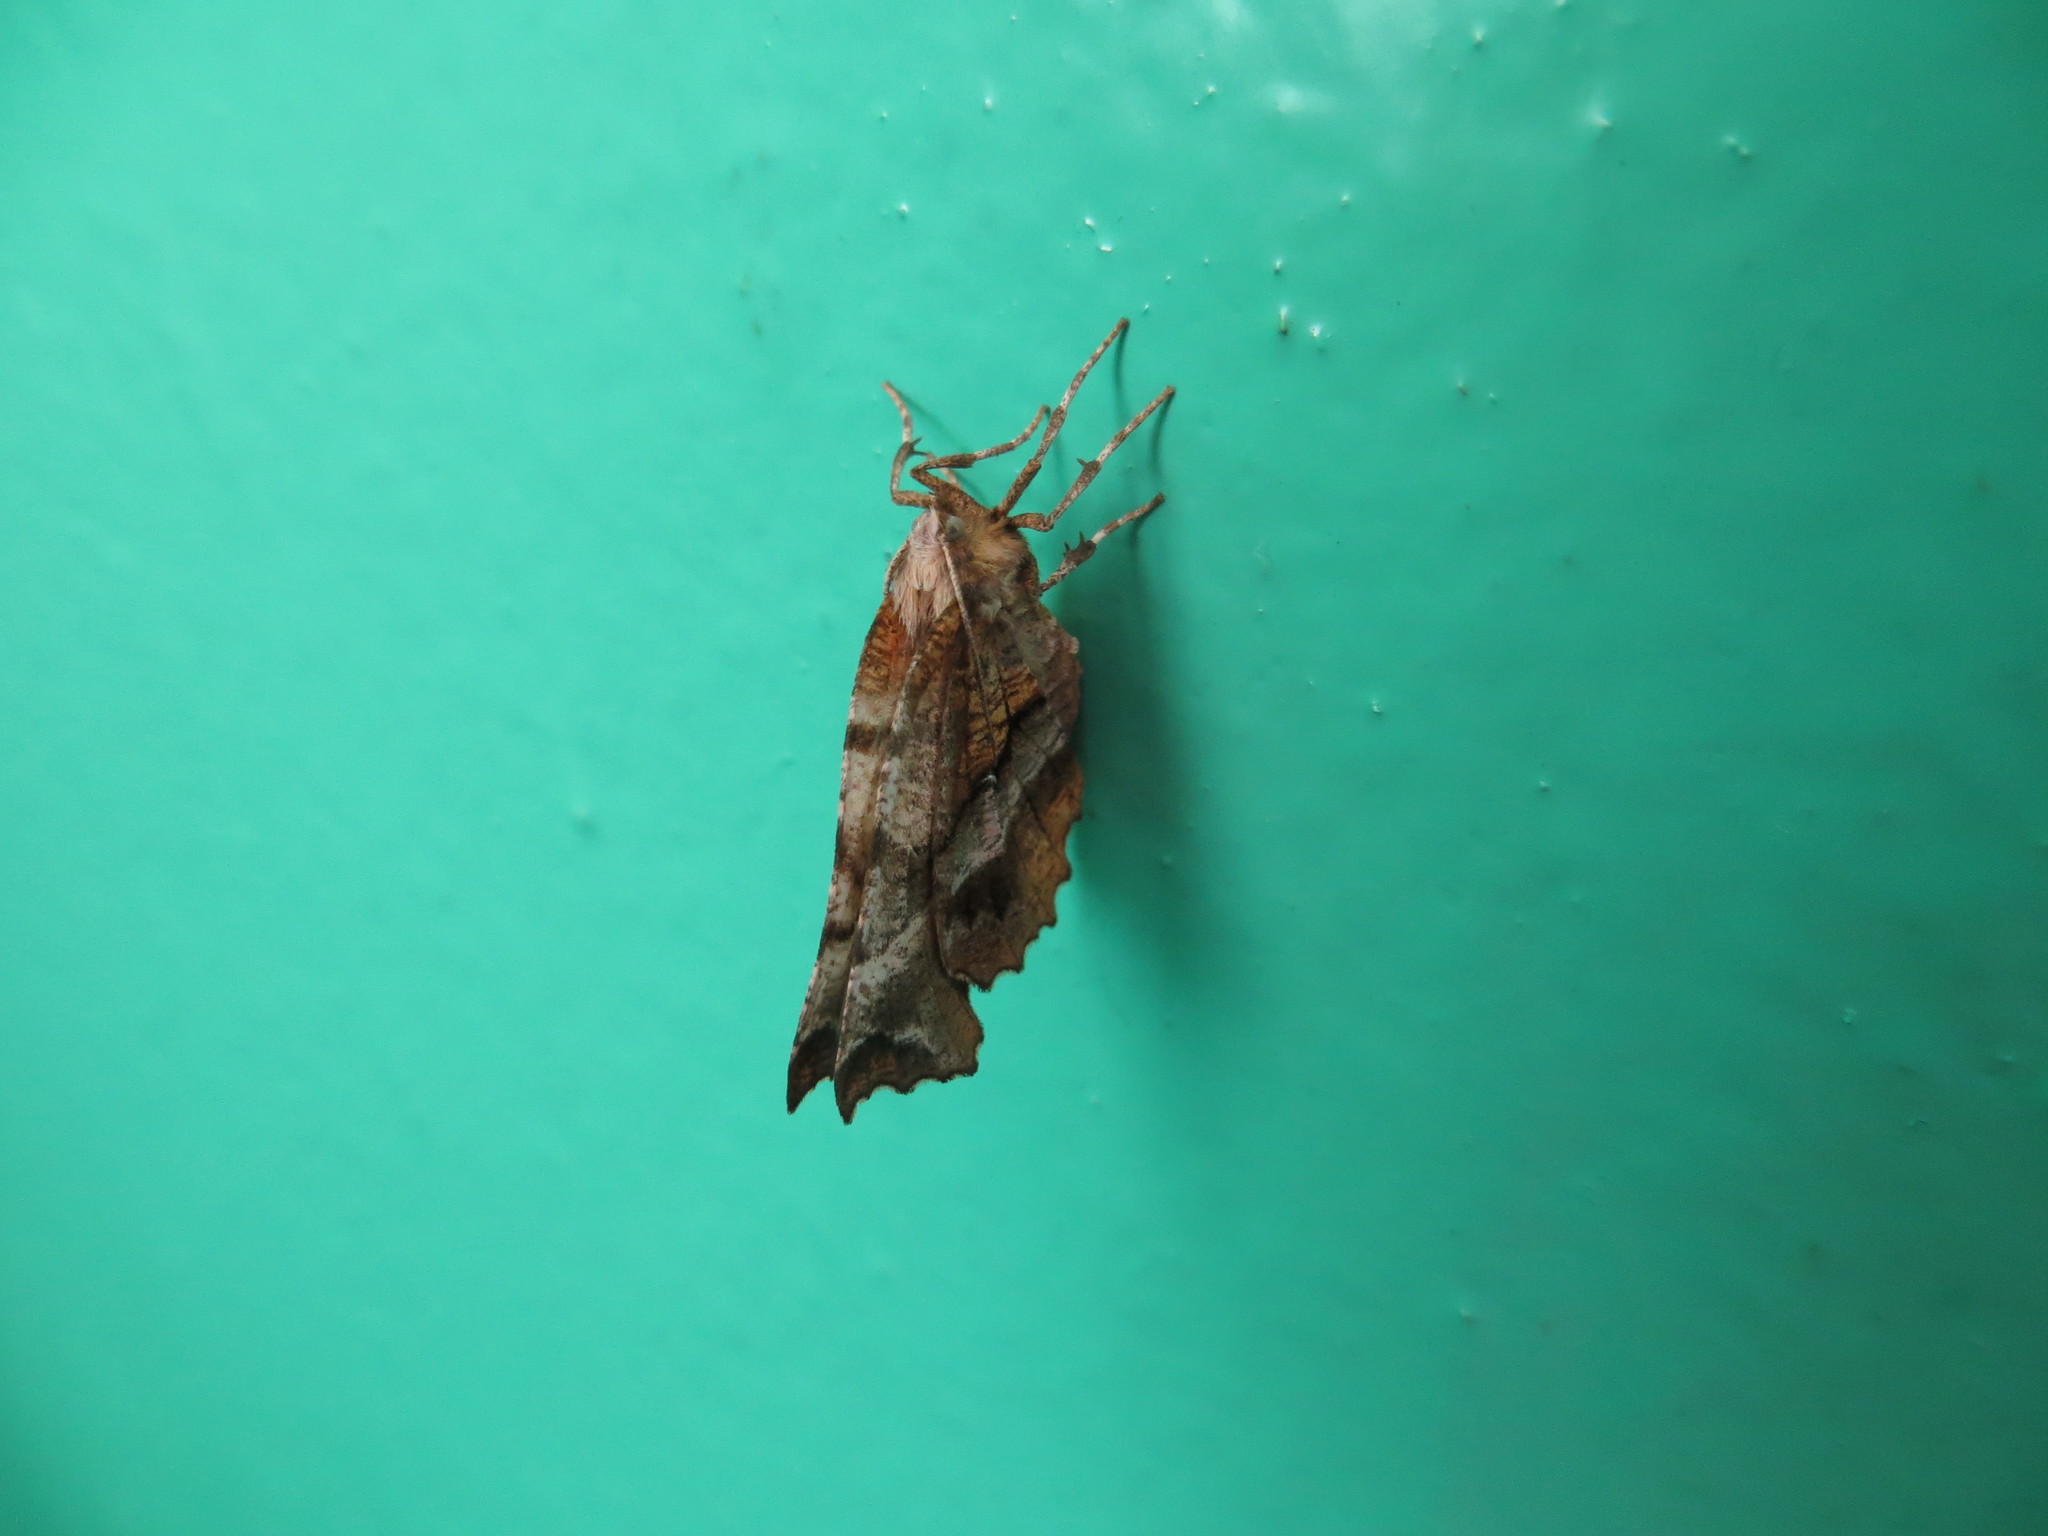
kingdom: Animalia
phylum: Arthropoda
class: Insecta
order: Lepidoptera
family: Geometridae
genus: Selenia
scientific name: Selenia tetralunaria
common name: Purple thorn
